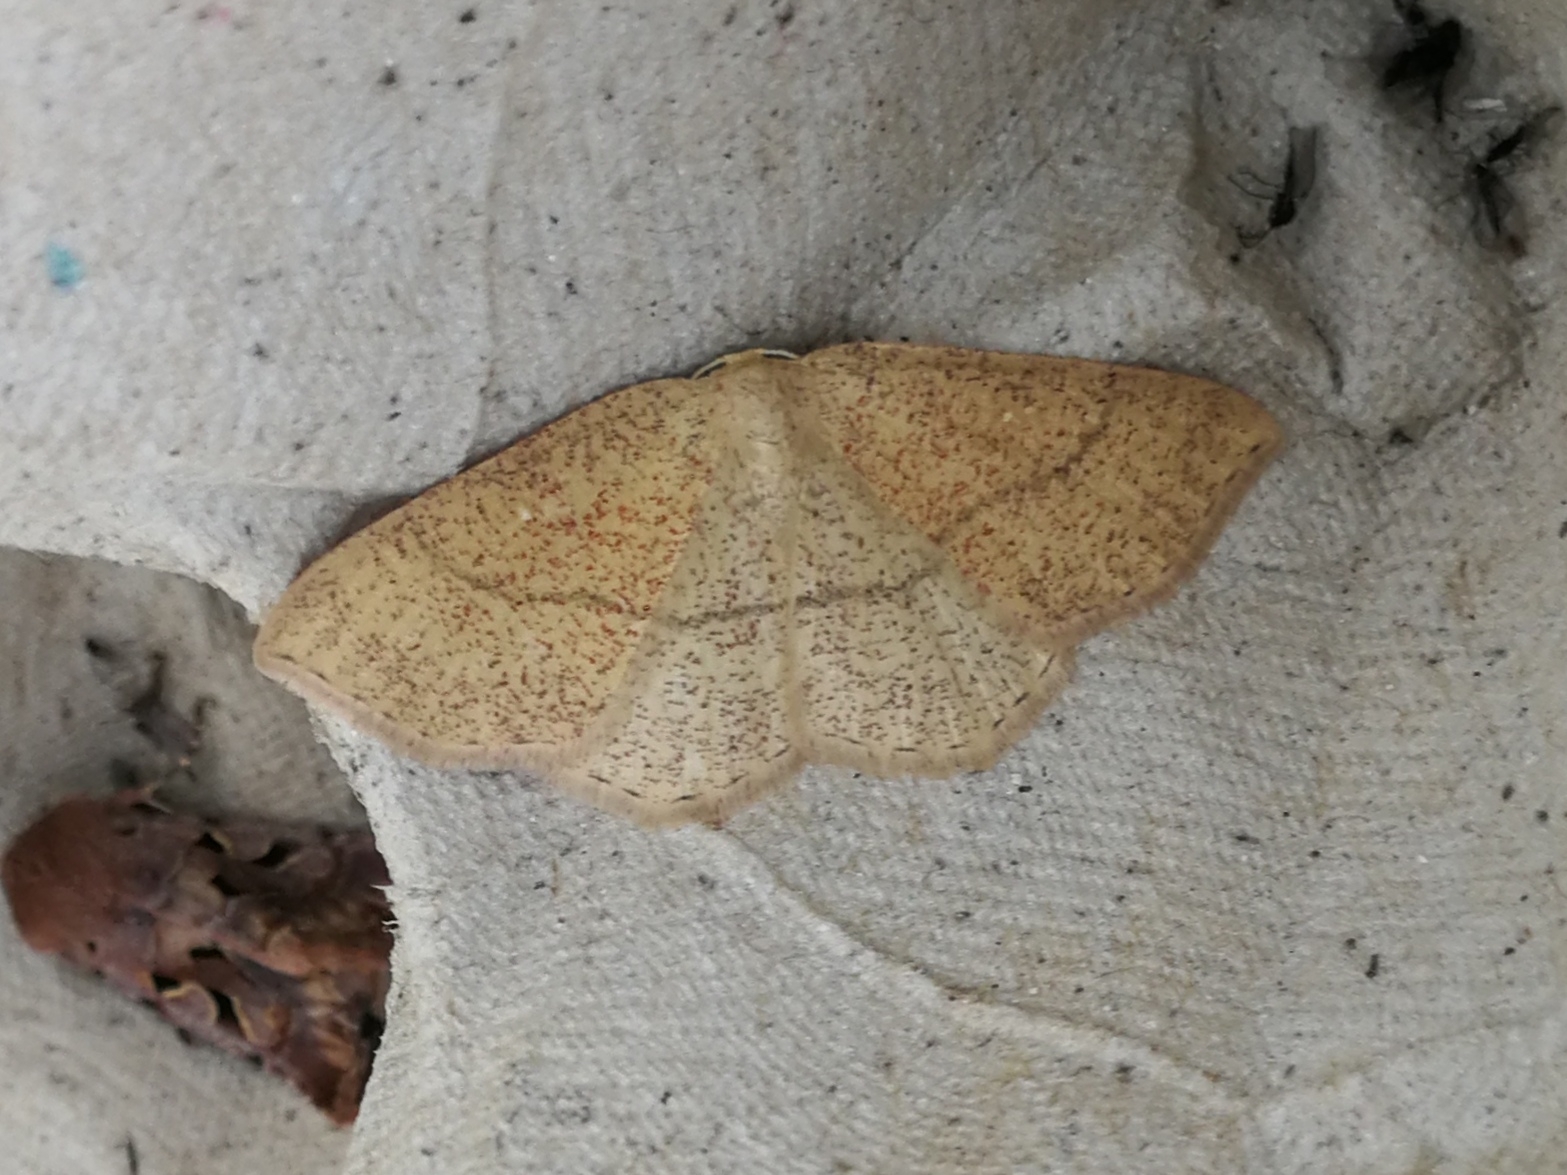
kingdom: Animalia
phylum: Arthropoda
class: Insecta
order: Lepidoptera
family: Geometridae
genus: Cyclophora
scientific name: Cyclophora ruficiliaria
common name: Jersey mocha
